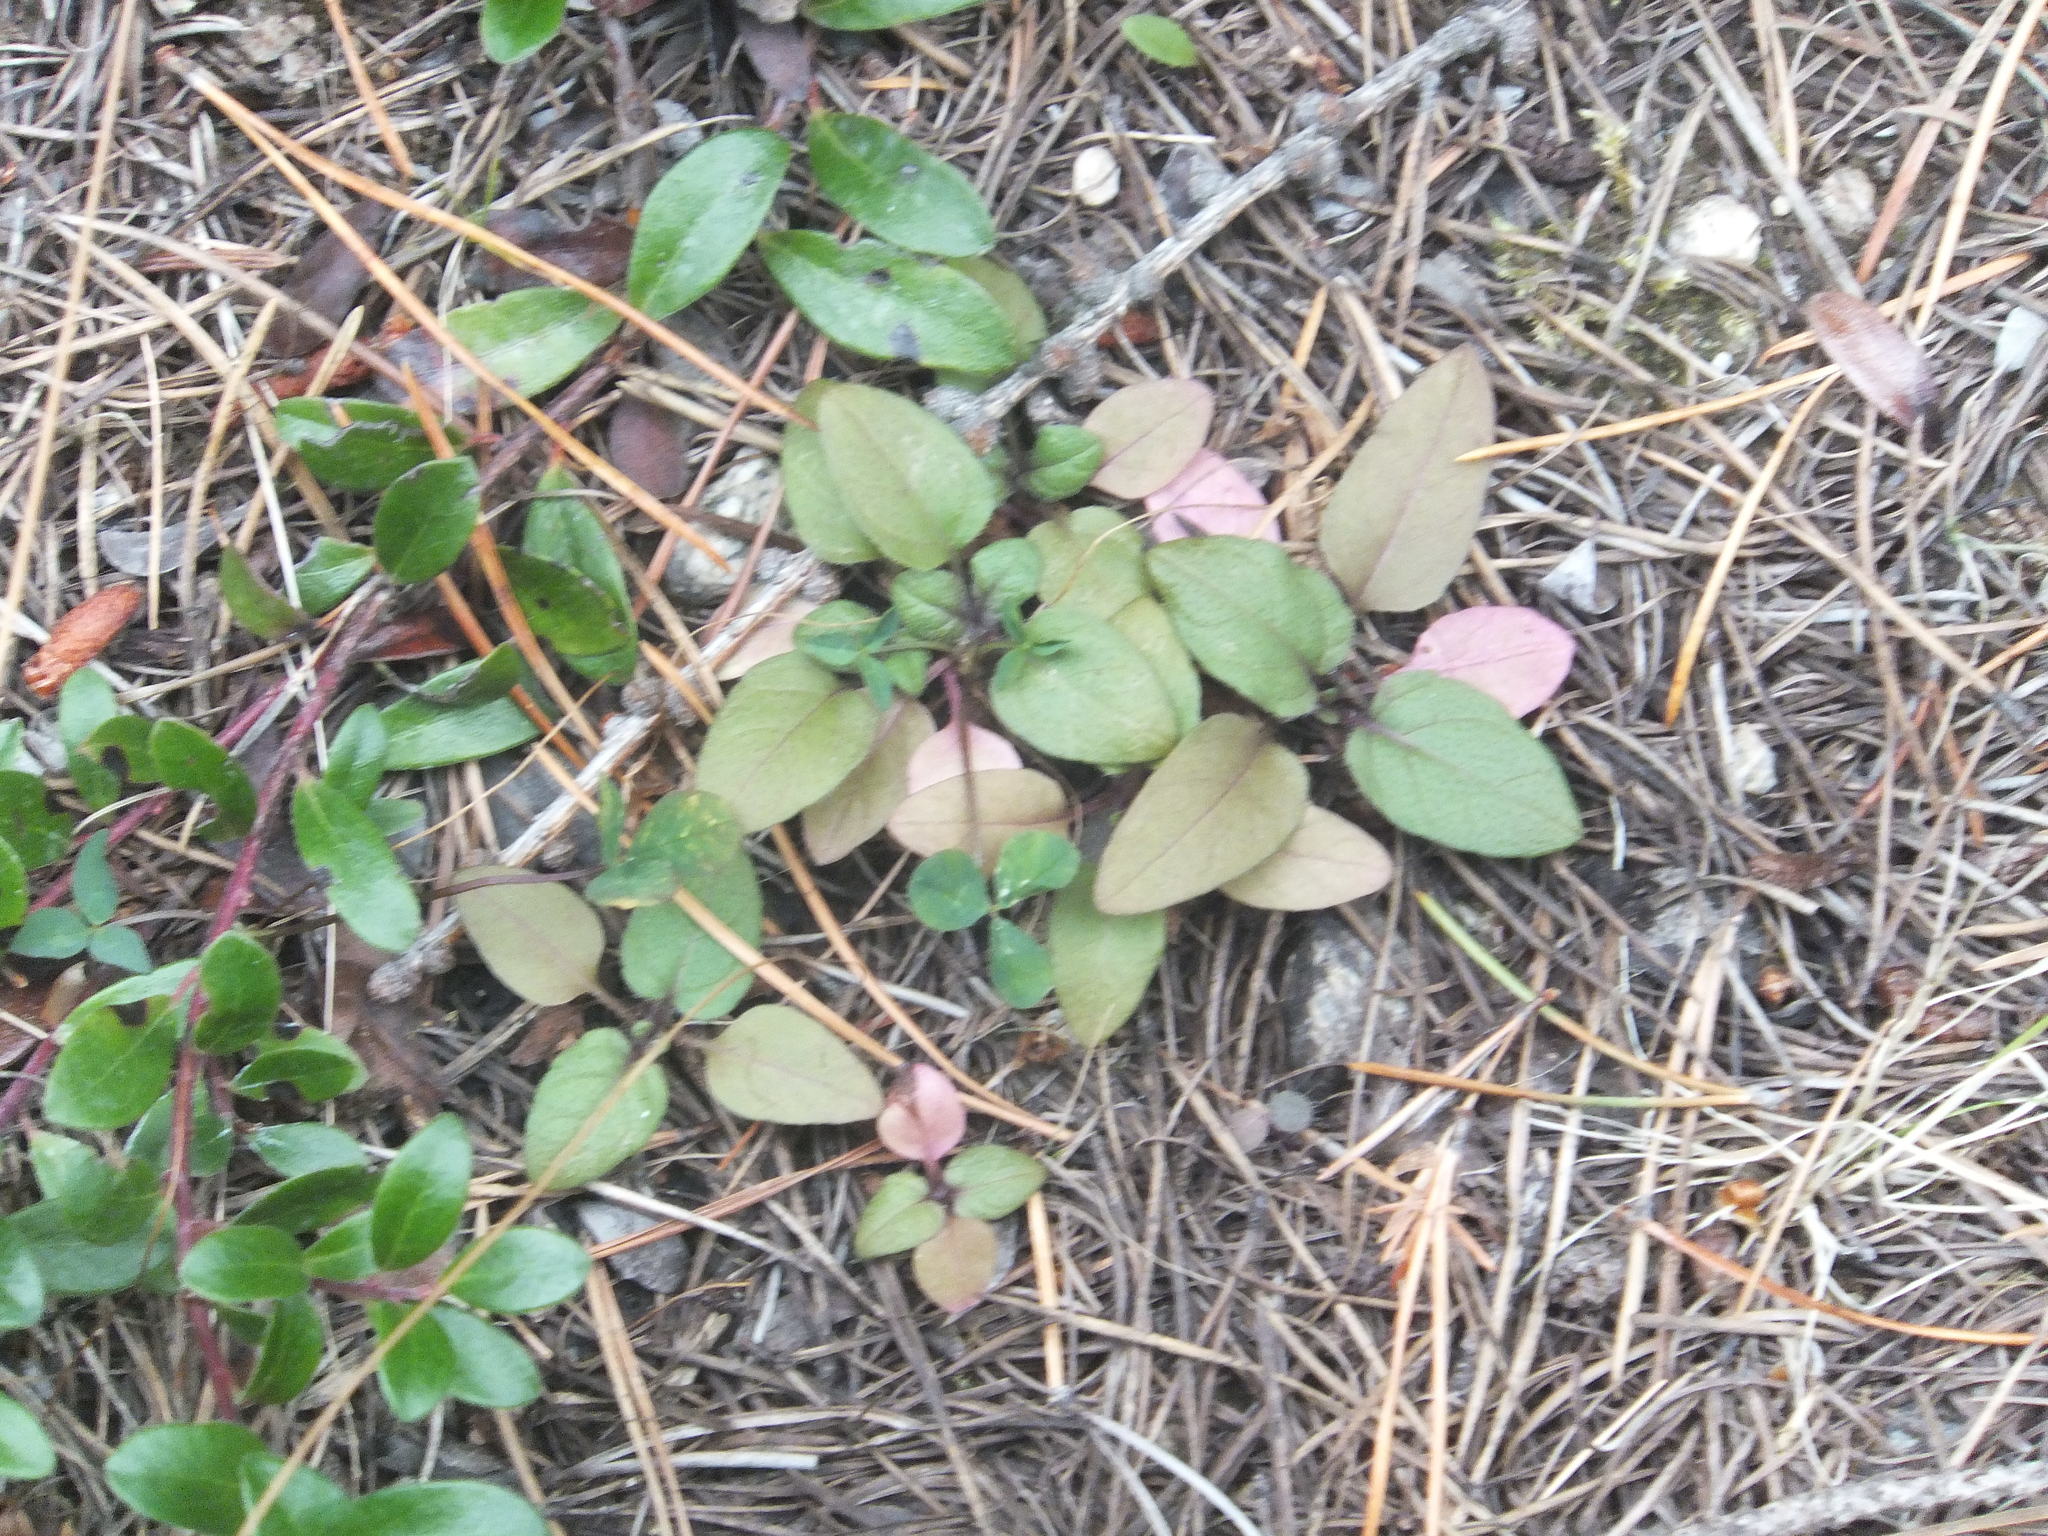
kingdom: Plantae
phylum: Tracheophyta
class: Magnoliopsida
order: Lamiales
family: Lamiaceae
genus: Prunella
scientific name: Prunella vulgaris
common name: Heal-all
